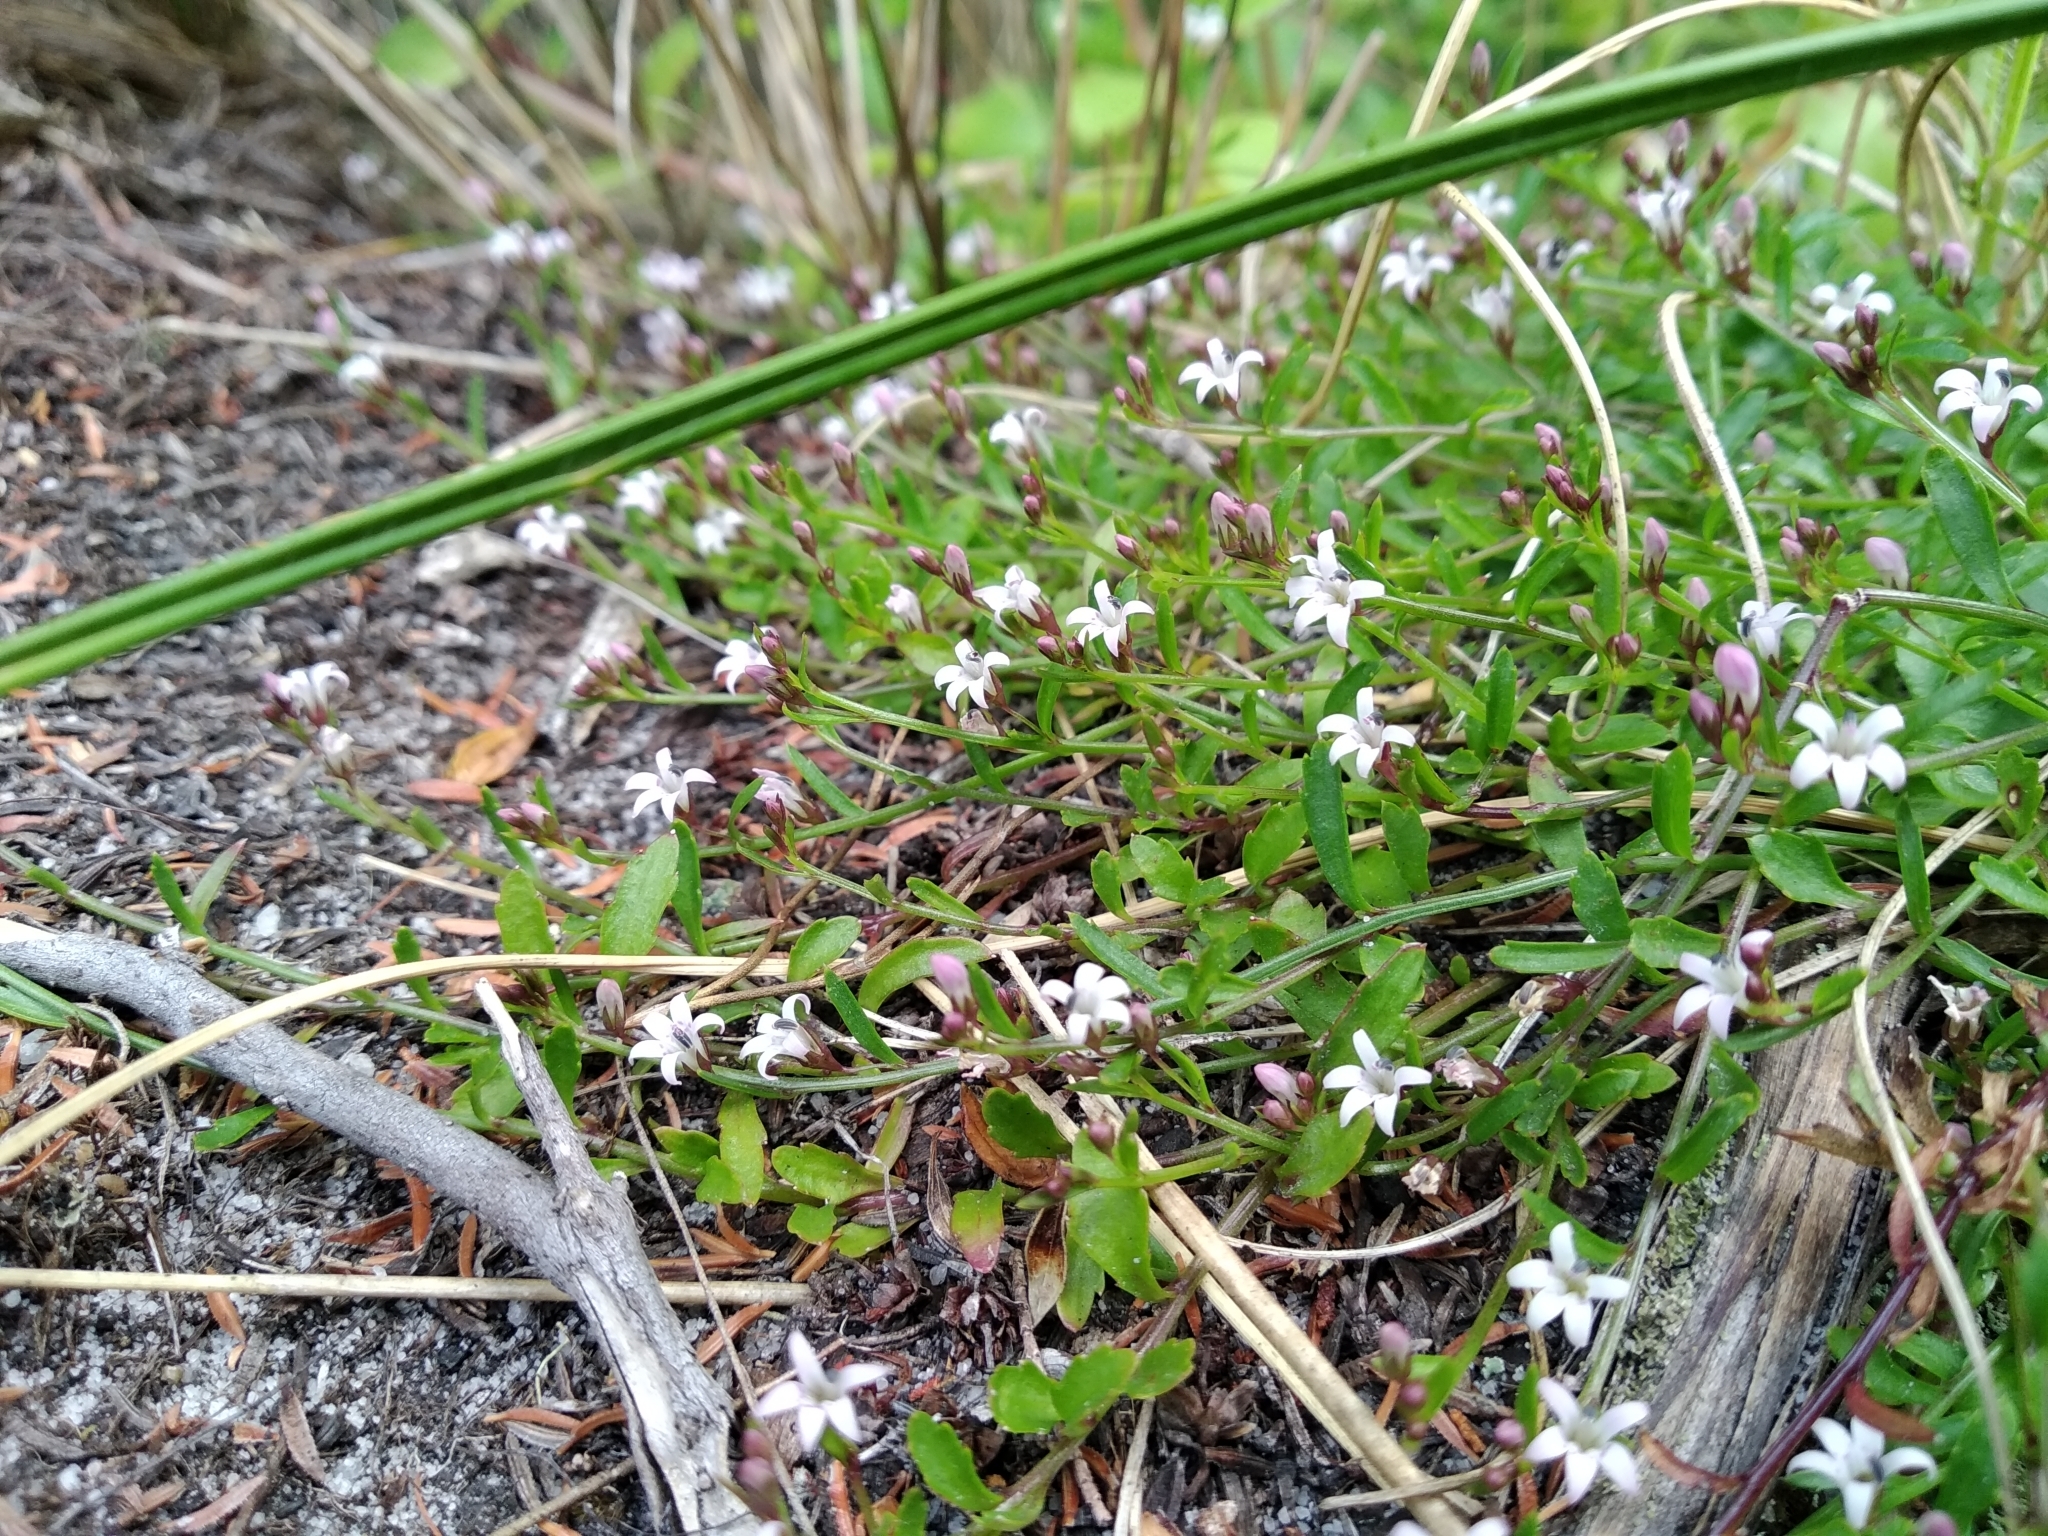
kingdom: Plantae
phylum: Tracheophyta
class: Magnoliopsida
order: Asterales
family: Campanulaceae
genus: Lobelia
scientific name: Lobelia eckloniana
